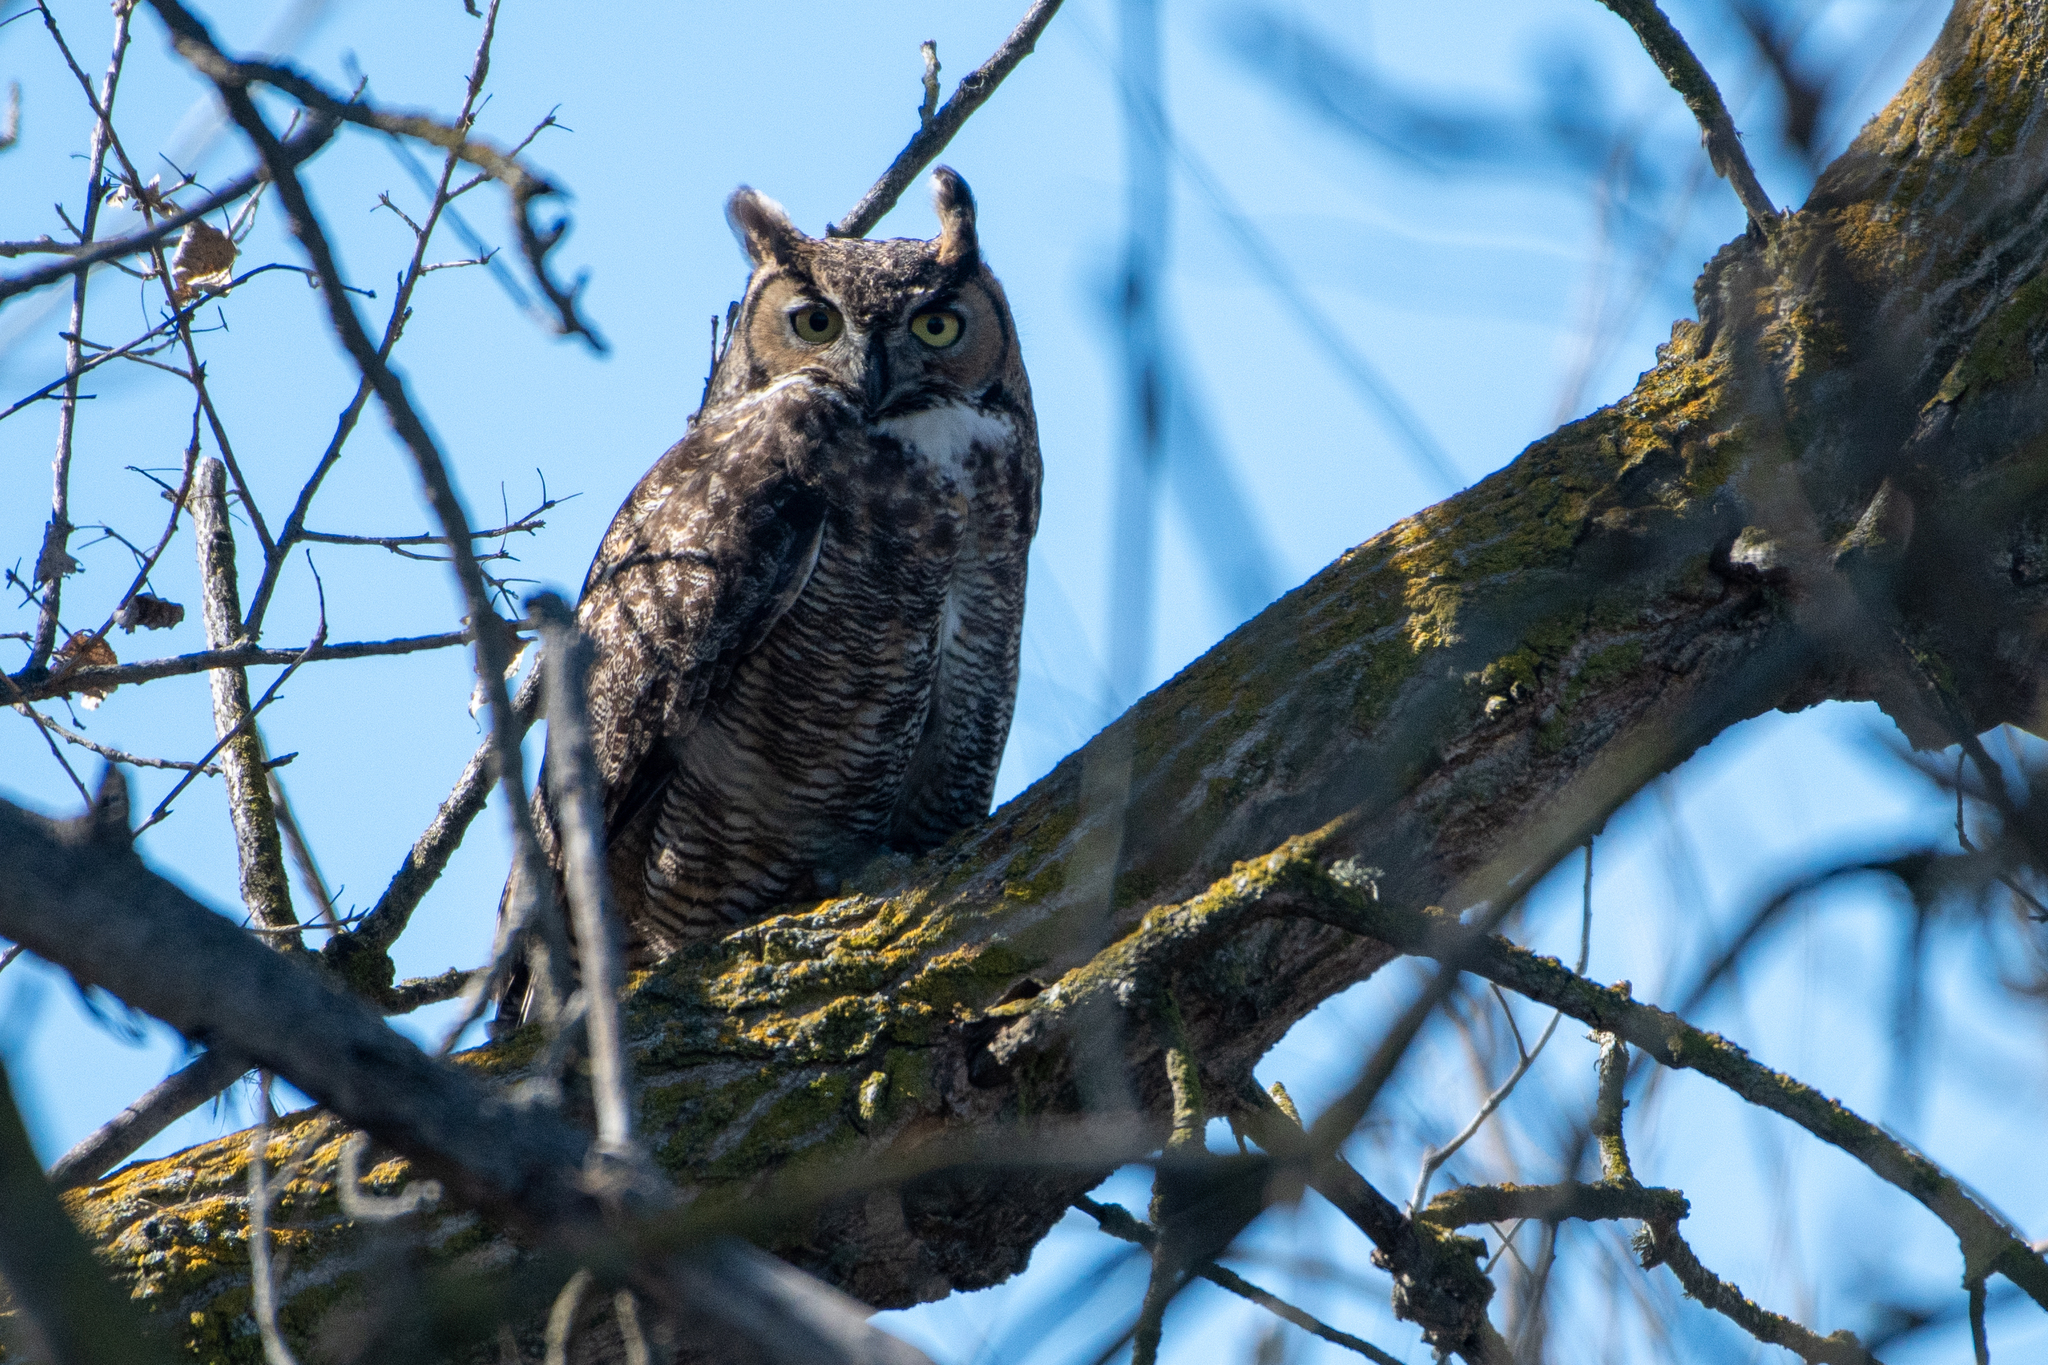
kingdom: Animalia
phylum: Chordata
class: Aves
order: Strigiformes
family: Strigidae
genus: Bubo
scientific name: Bubo virginianus
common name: Great horned owl
